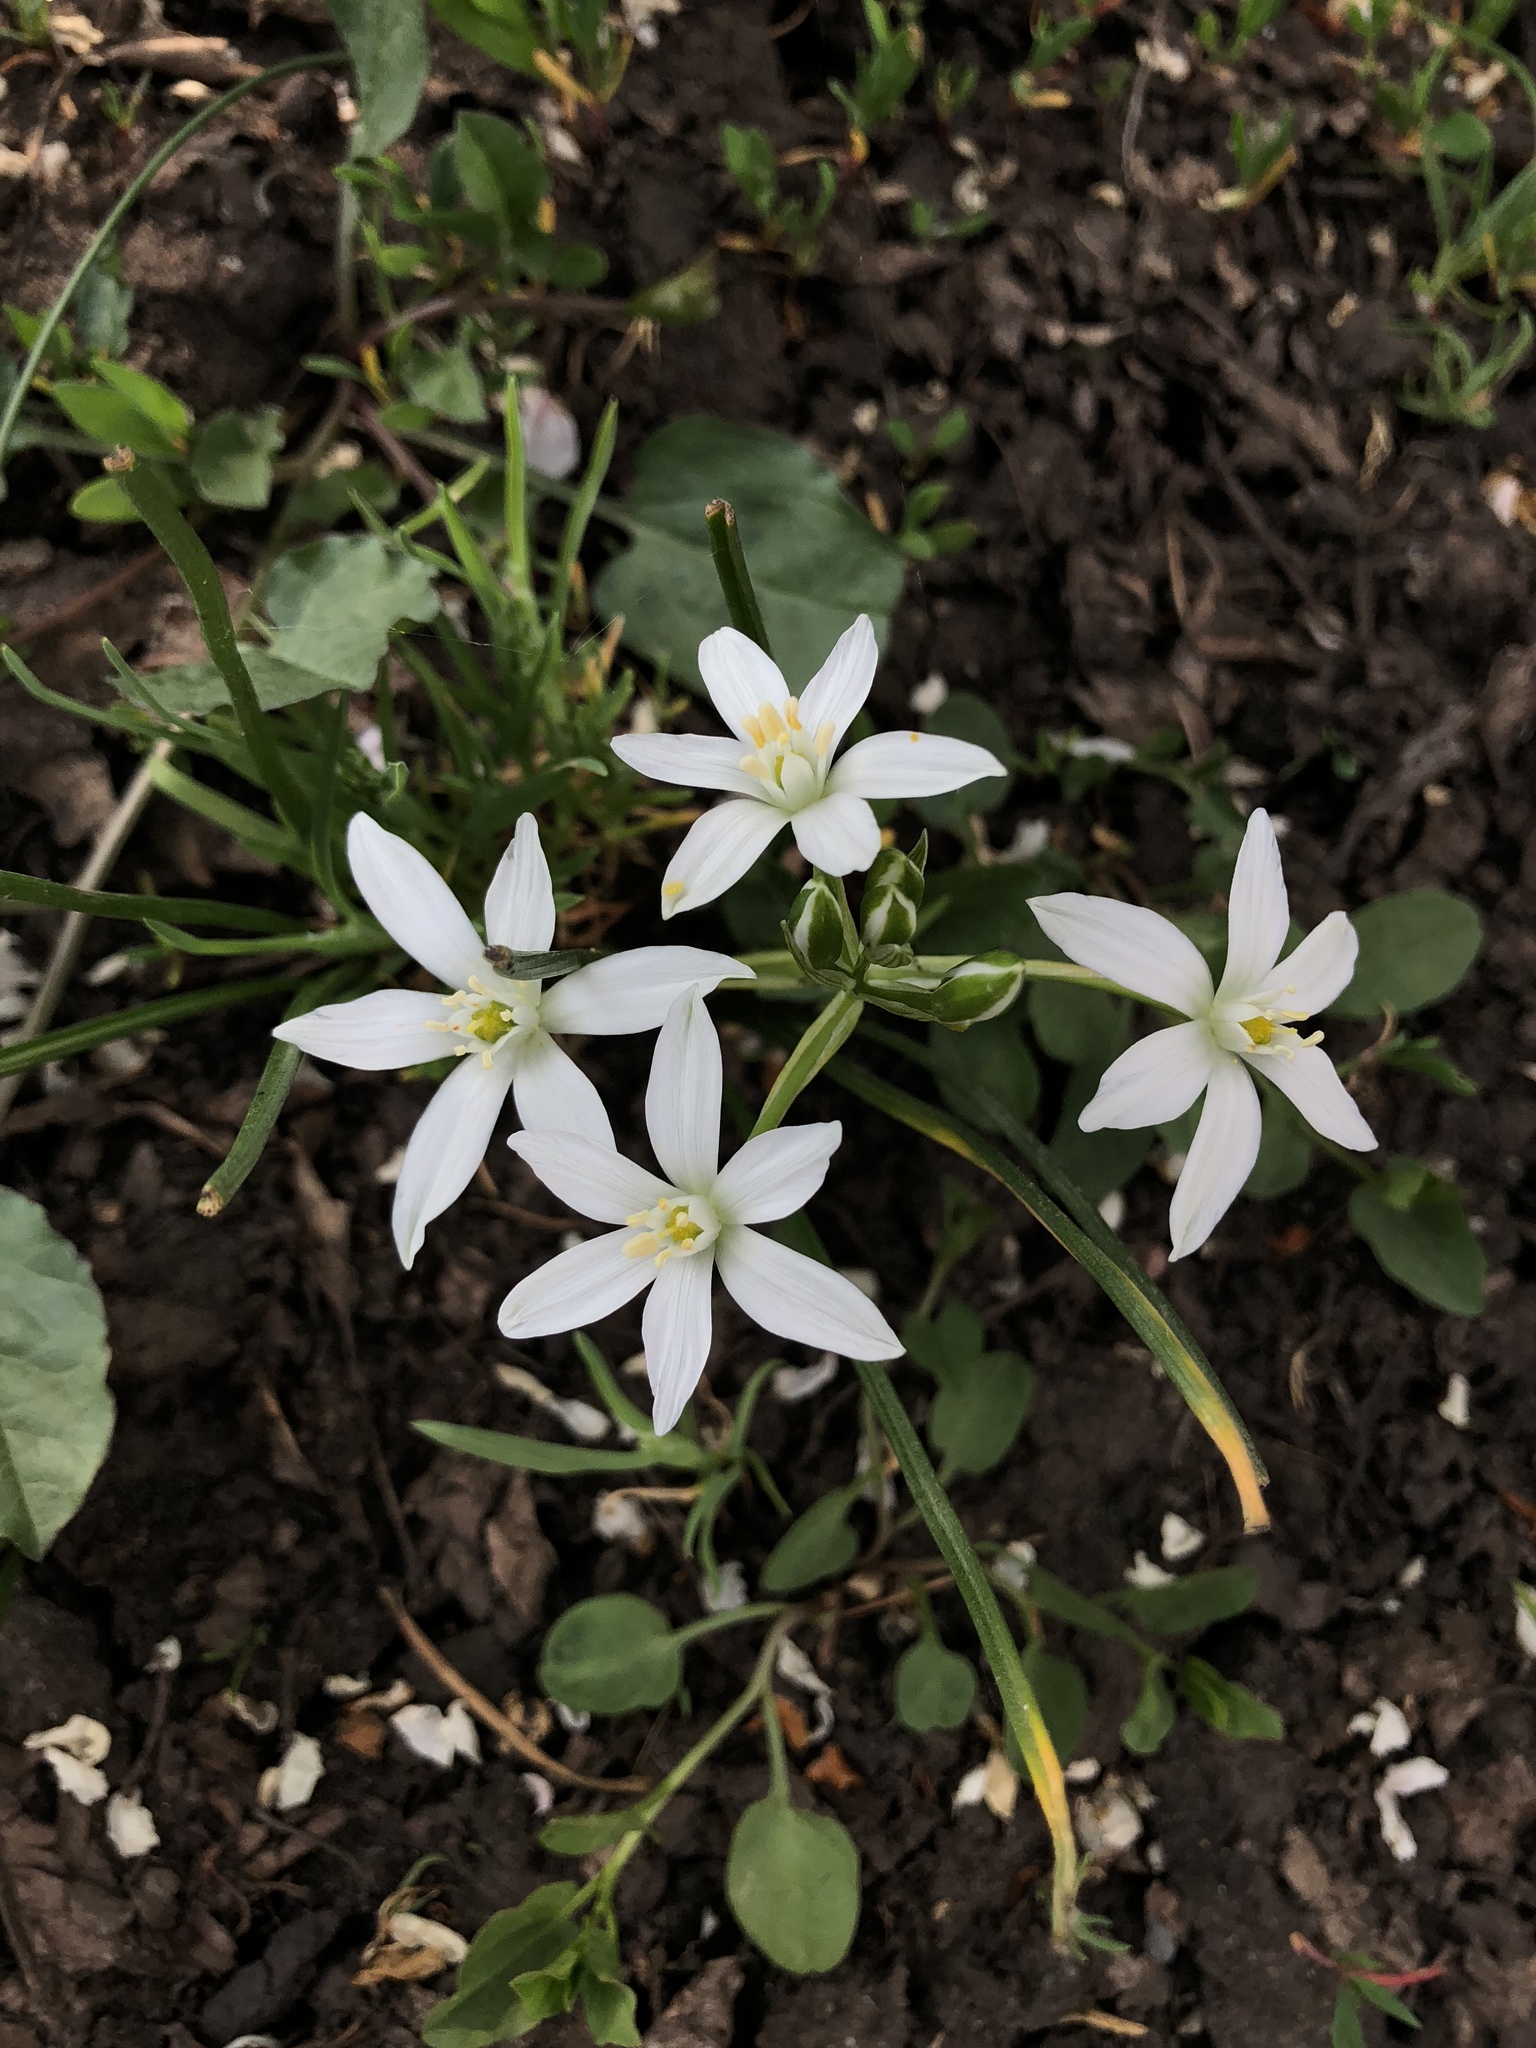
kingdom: Plantae
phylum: Tracheophyta
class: Liliopsida
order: Asparagales
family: Asparagaceae
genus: Ornithogalum
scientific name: Ornithogalum umbellatum
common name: Garden star-of-bethlehem
